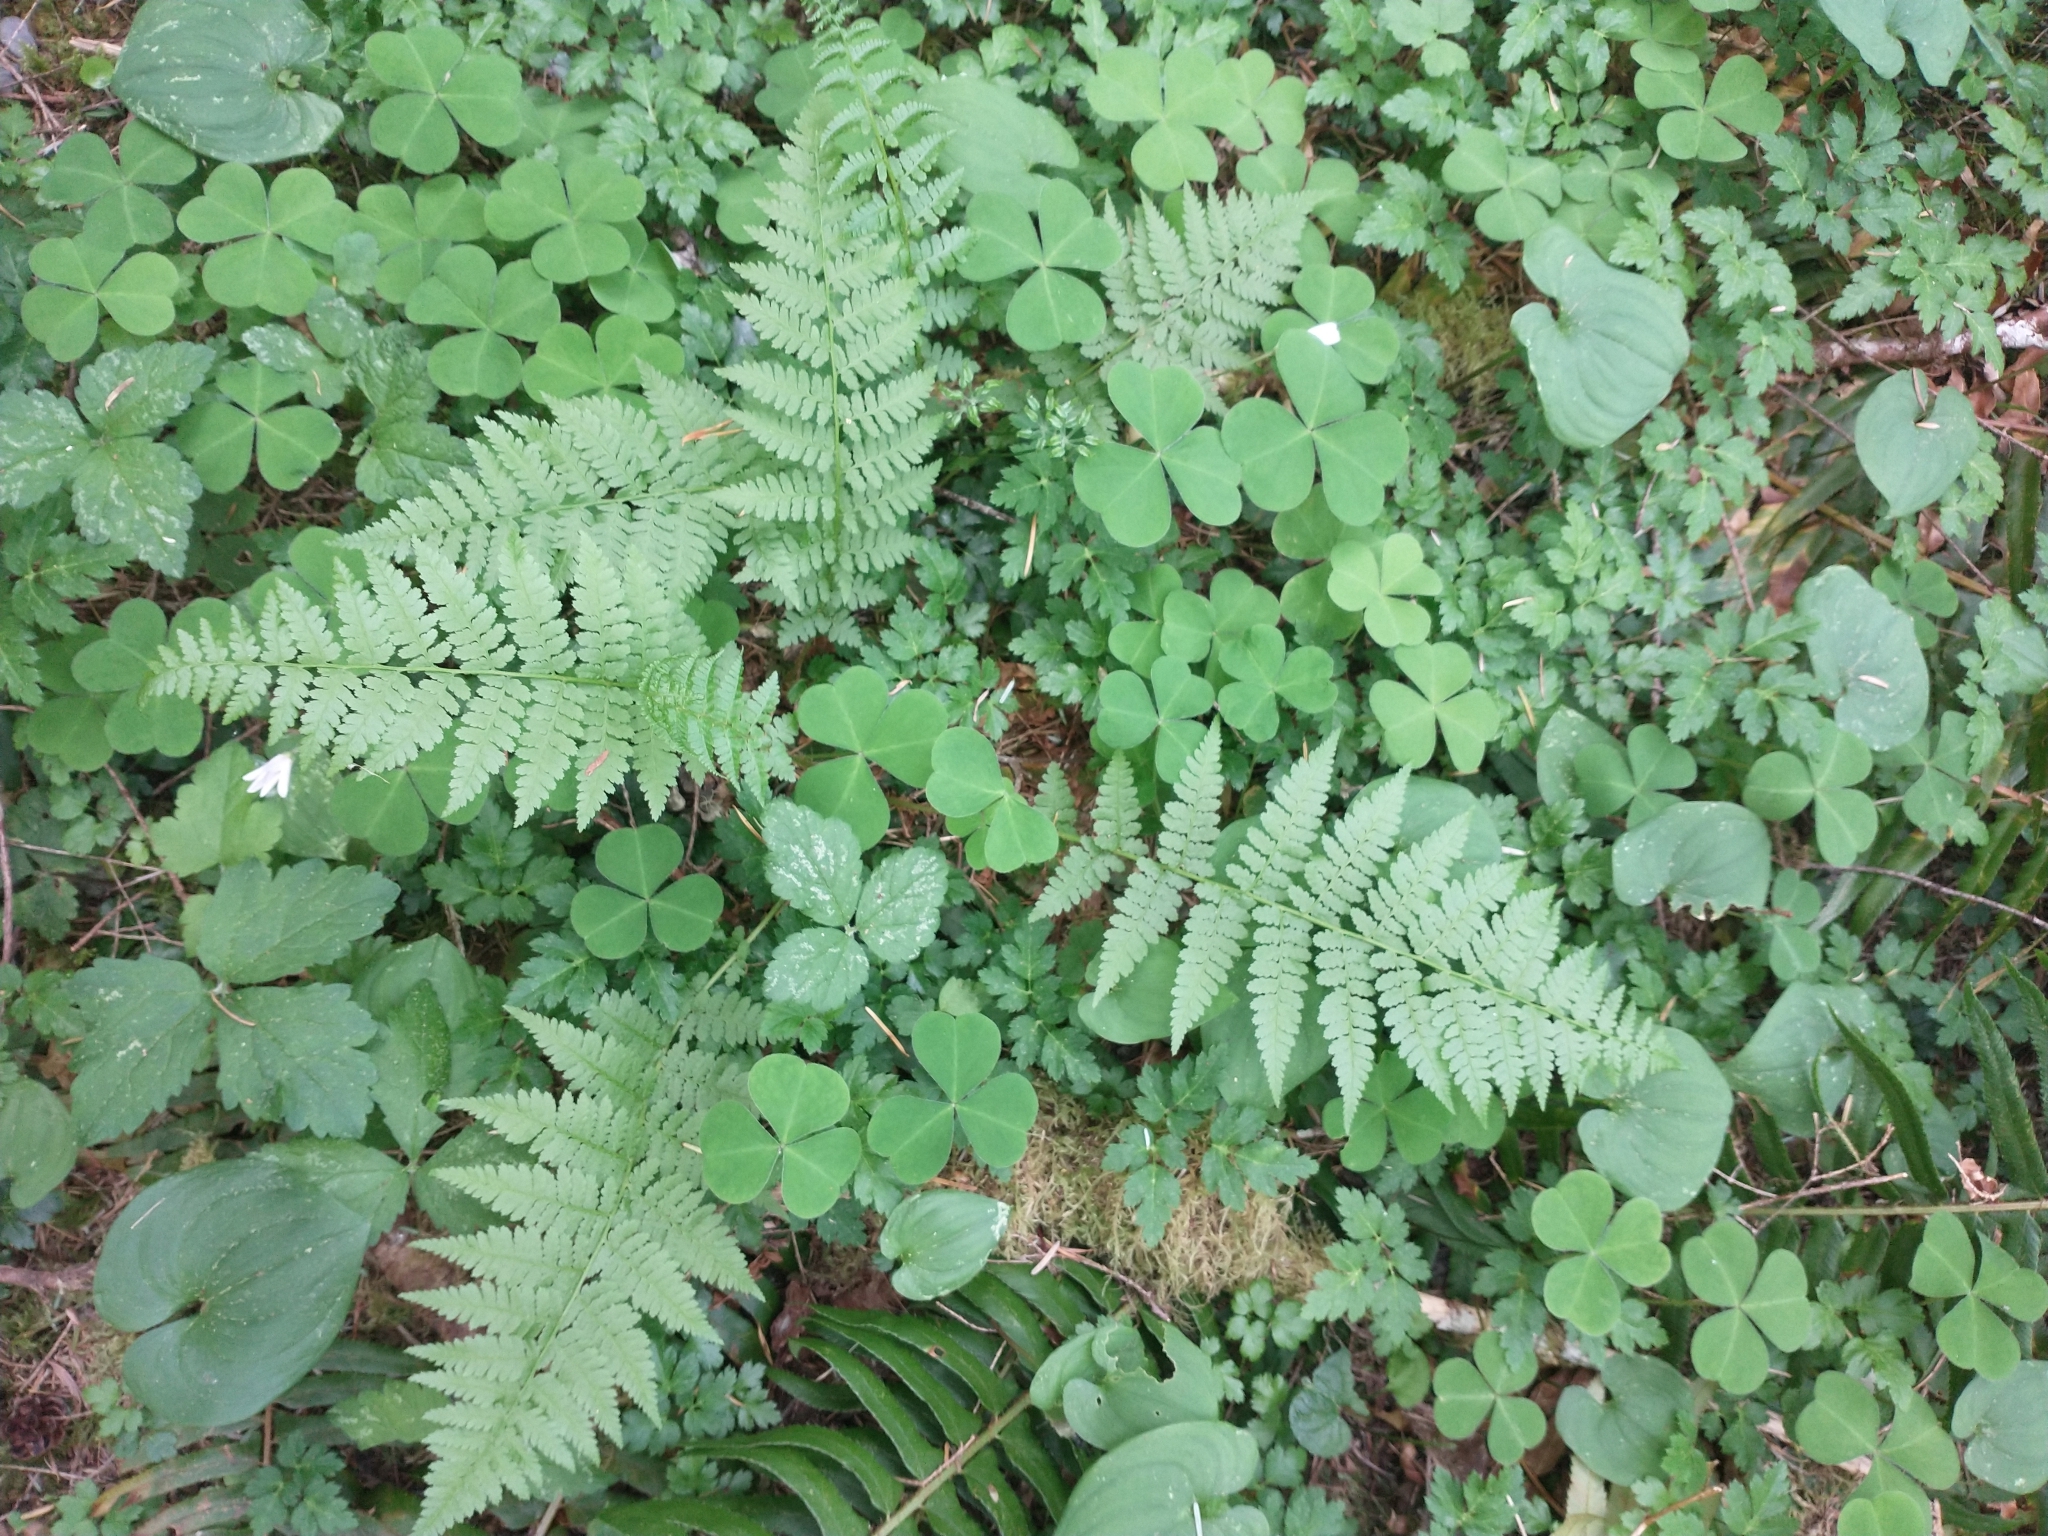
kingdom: Plantae
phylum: Tracheophyta
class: Polypodiopsida
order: Polypodiales
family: Athyriaceae
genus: Athyrium
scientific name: Athyrium filix-femina
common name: Lady fern
